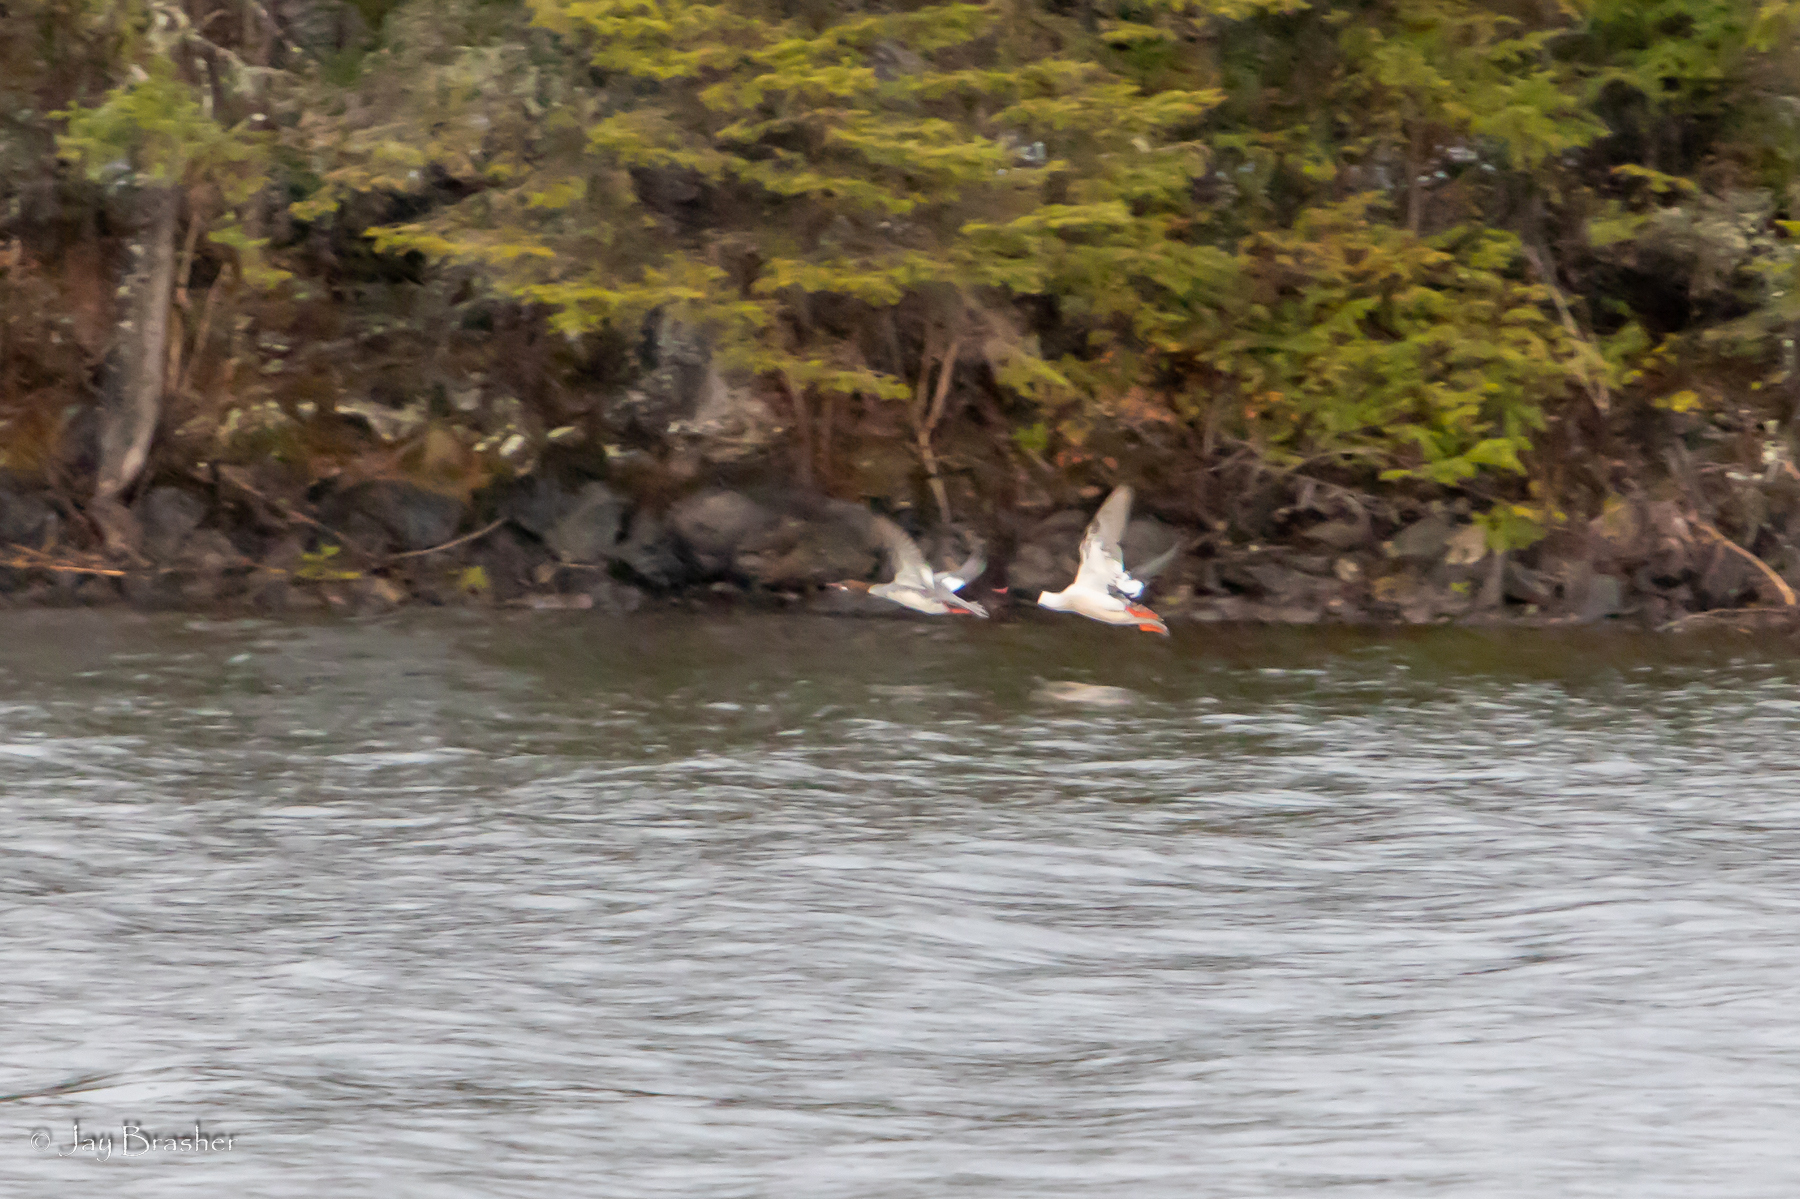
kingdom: Animalia
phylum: Chordata
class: Aves
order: Anseriformes
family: Anatidae
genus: Mergus
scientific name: Mergus merganser
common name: Common merganser
